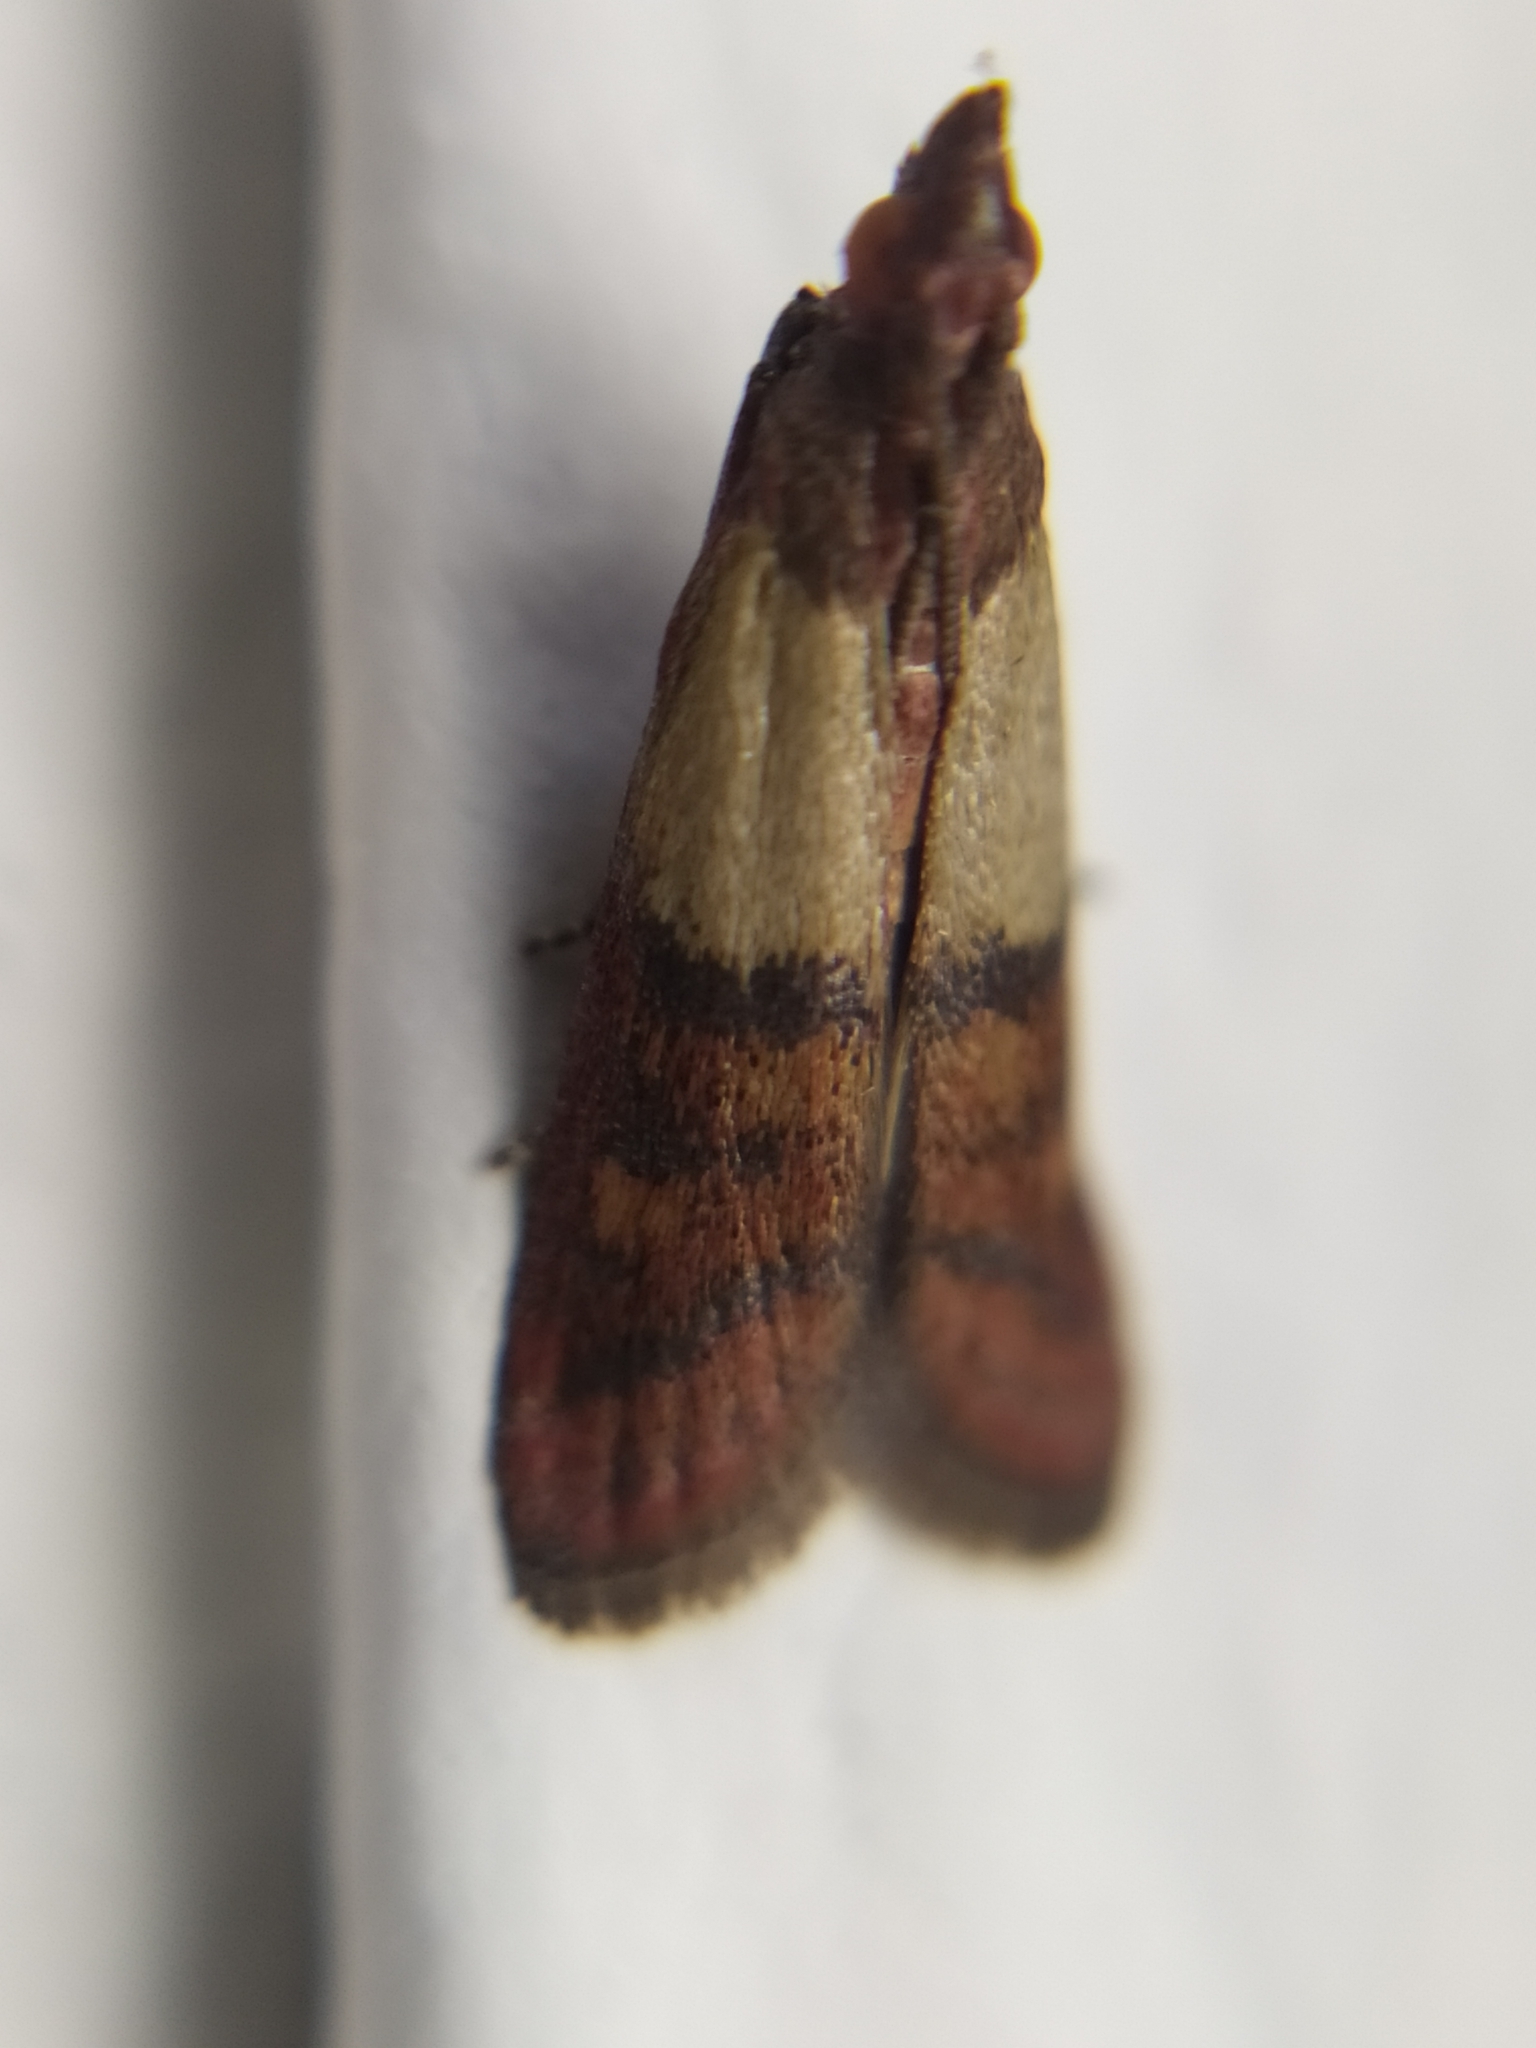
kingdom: Animalia
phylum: Arthropoda
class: Insecta
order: Lepidoptera
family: Pyralidae
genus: Plodia
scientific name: Plodia interpunctella
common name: Indian meal moth
